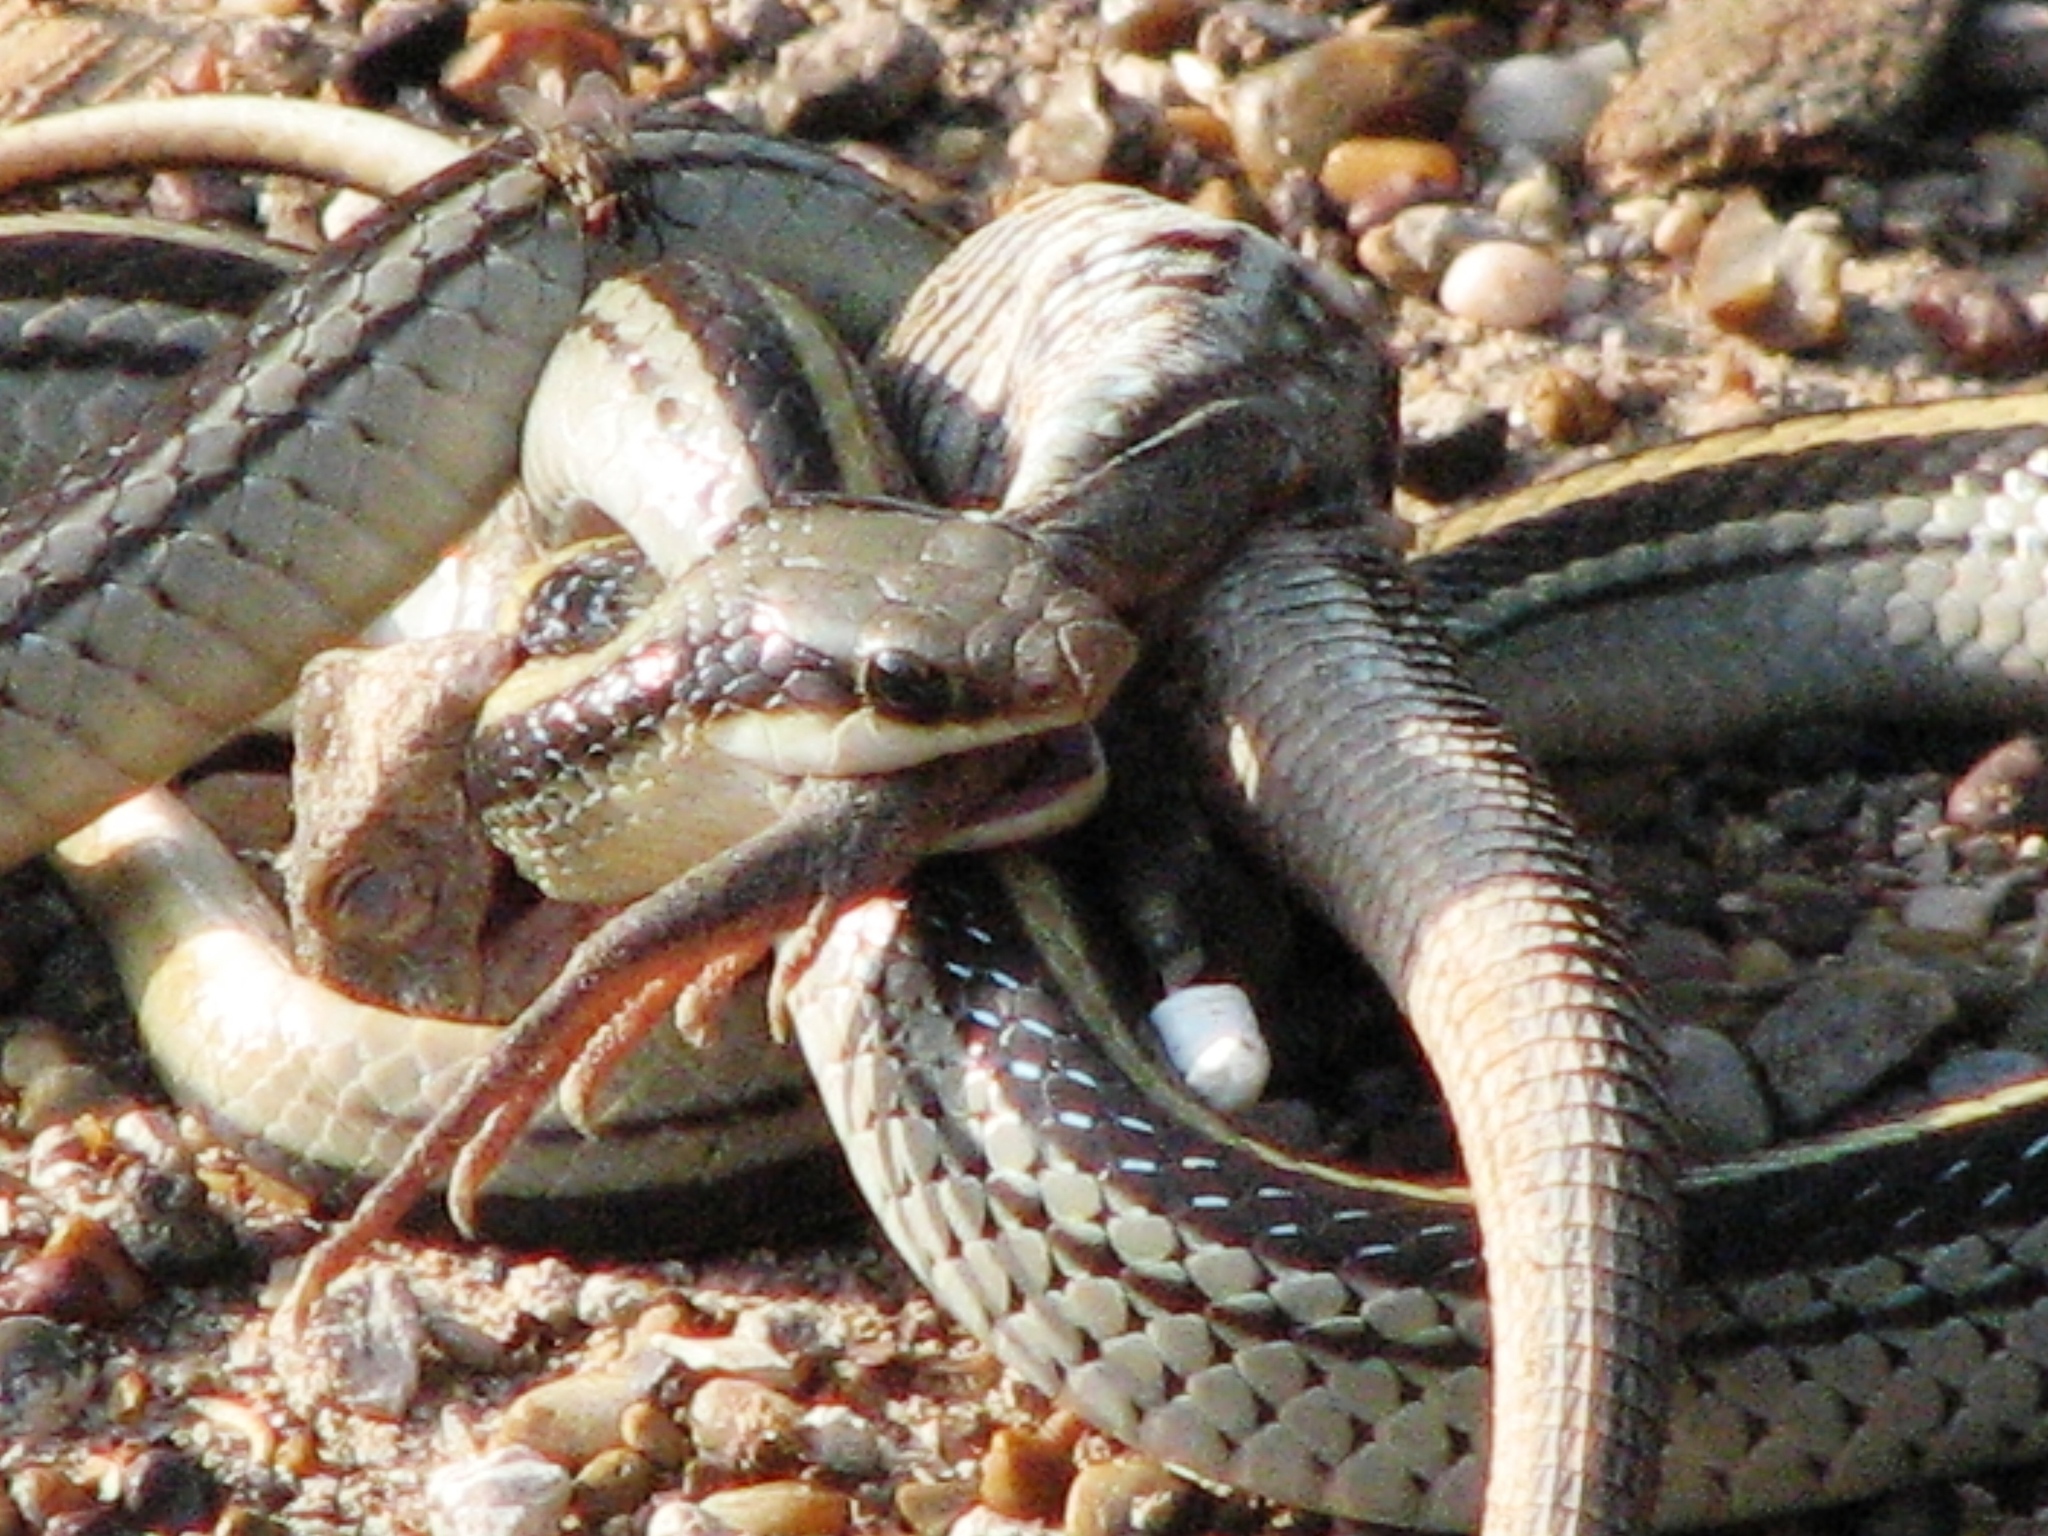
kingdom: Animalia
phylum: Chordata
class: Squamata
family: Colubridae
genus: Salvadora
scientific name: Salvadora lineata
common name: Texas patchnose snake
